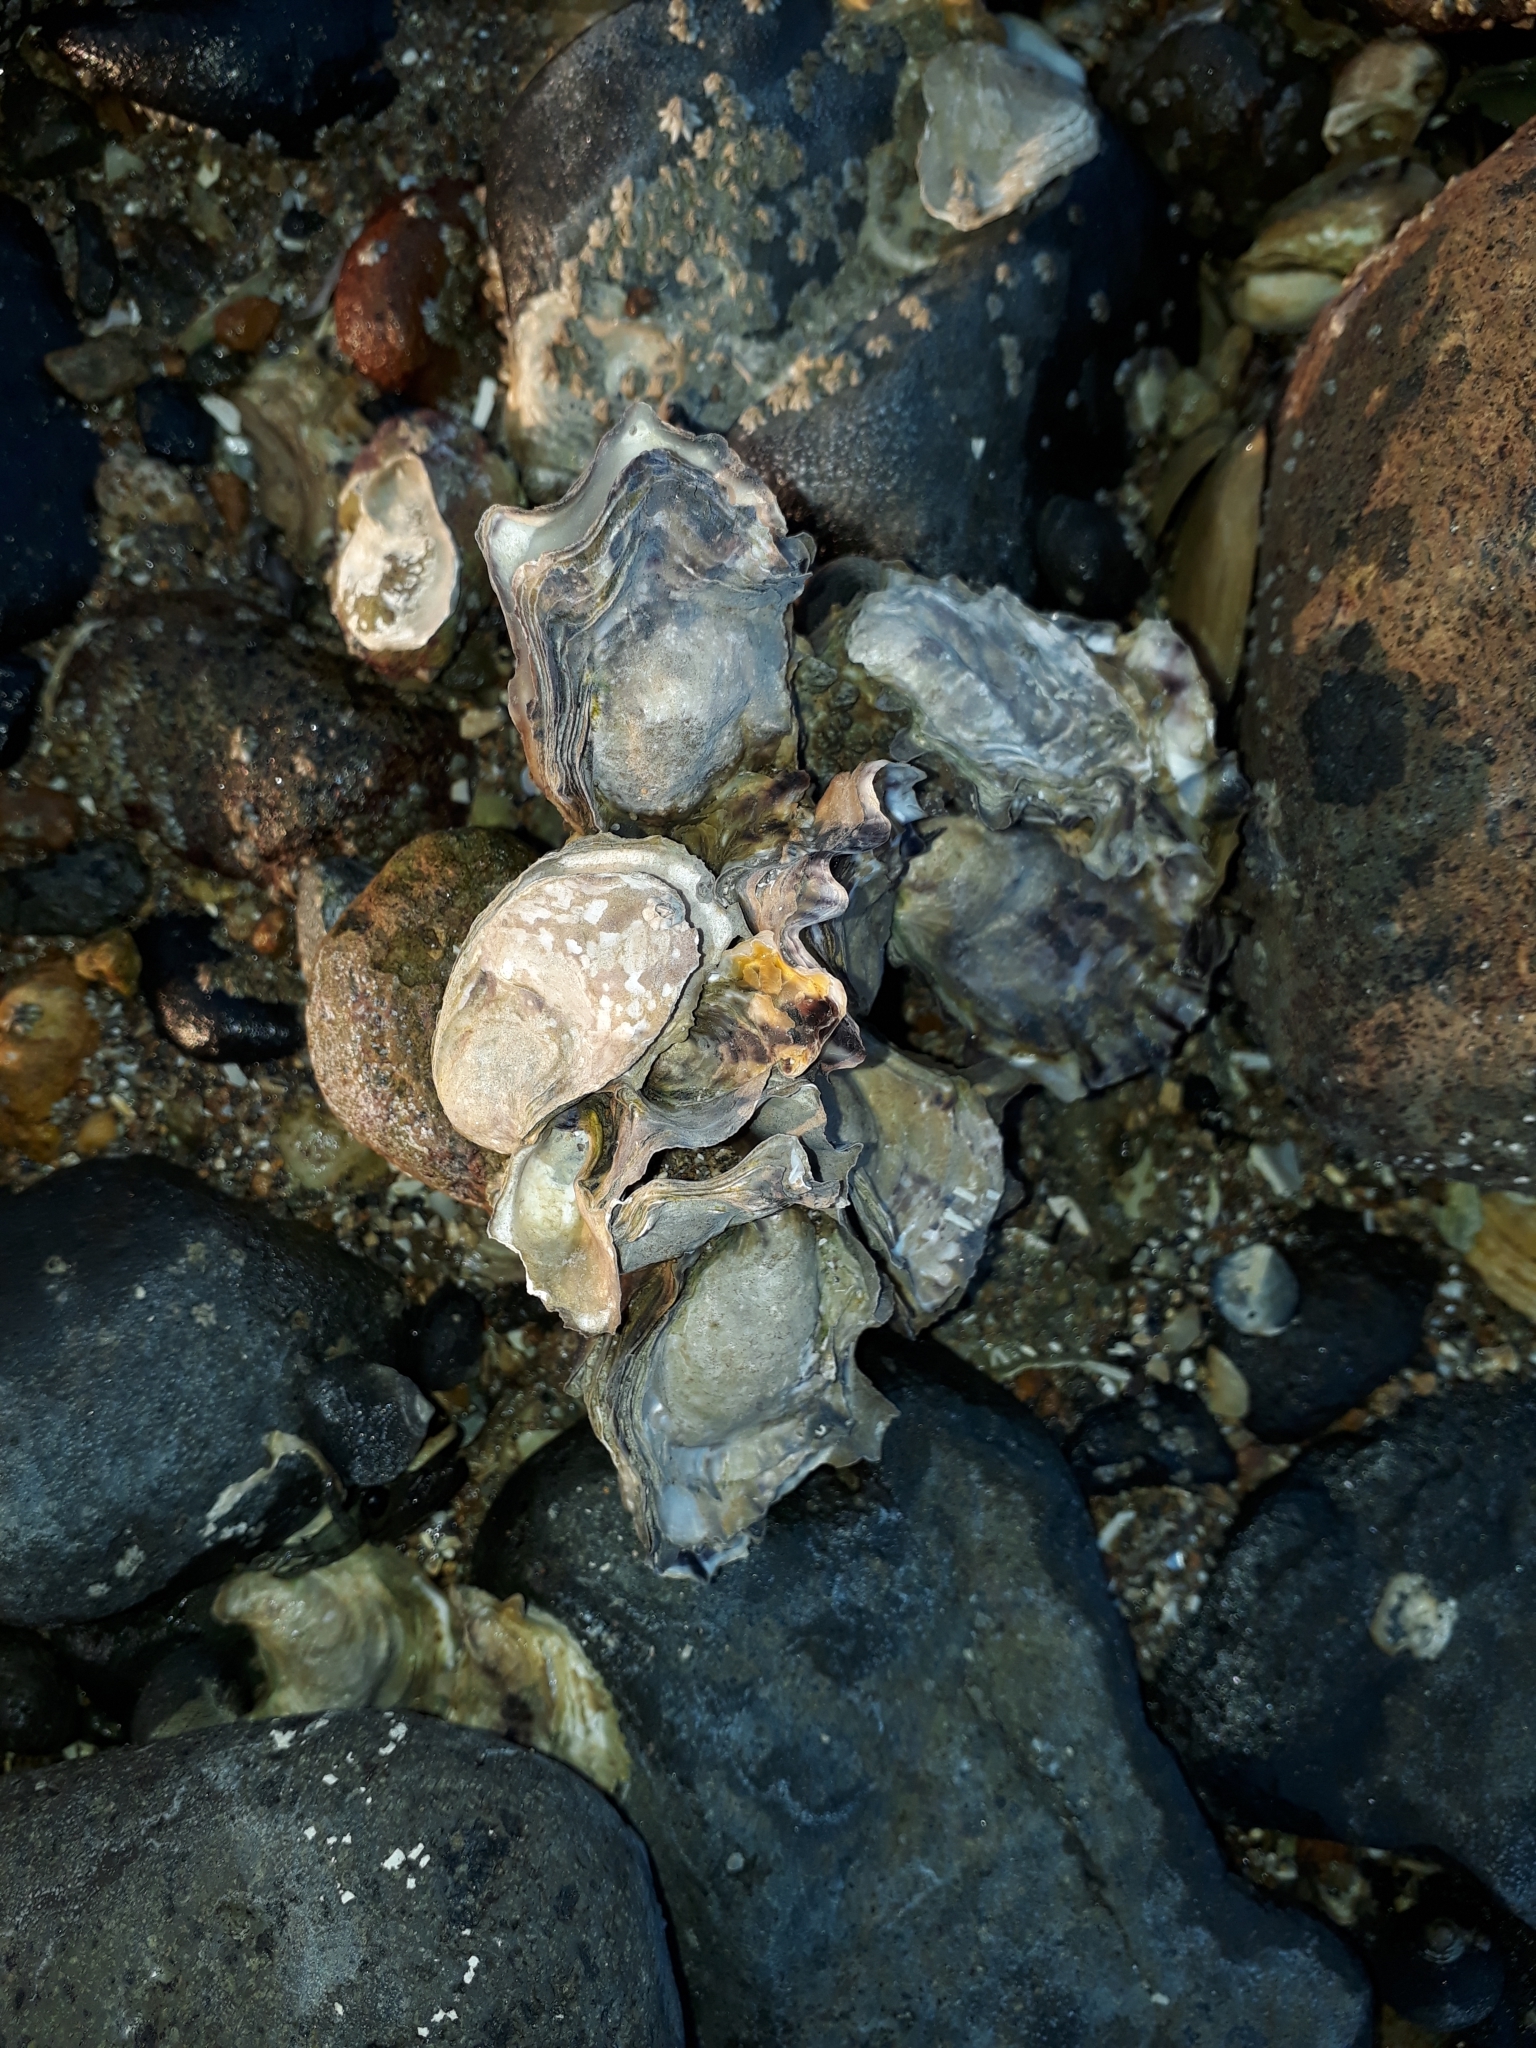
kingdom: Animalia
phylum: Mollusca
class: Bivalvia
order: Ostreida
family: Ostreidae
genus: Magallana
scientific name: Magallana gigas
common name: Pacific oyster
